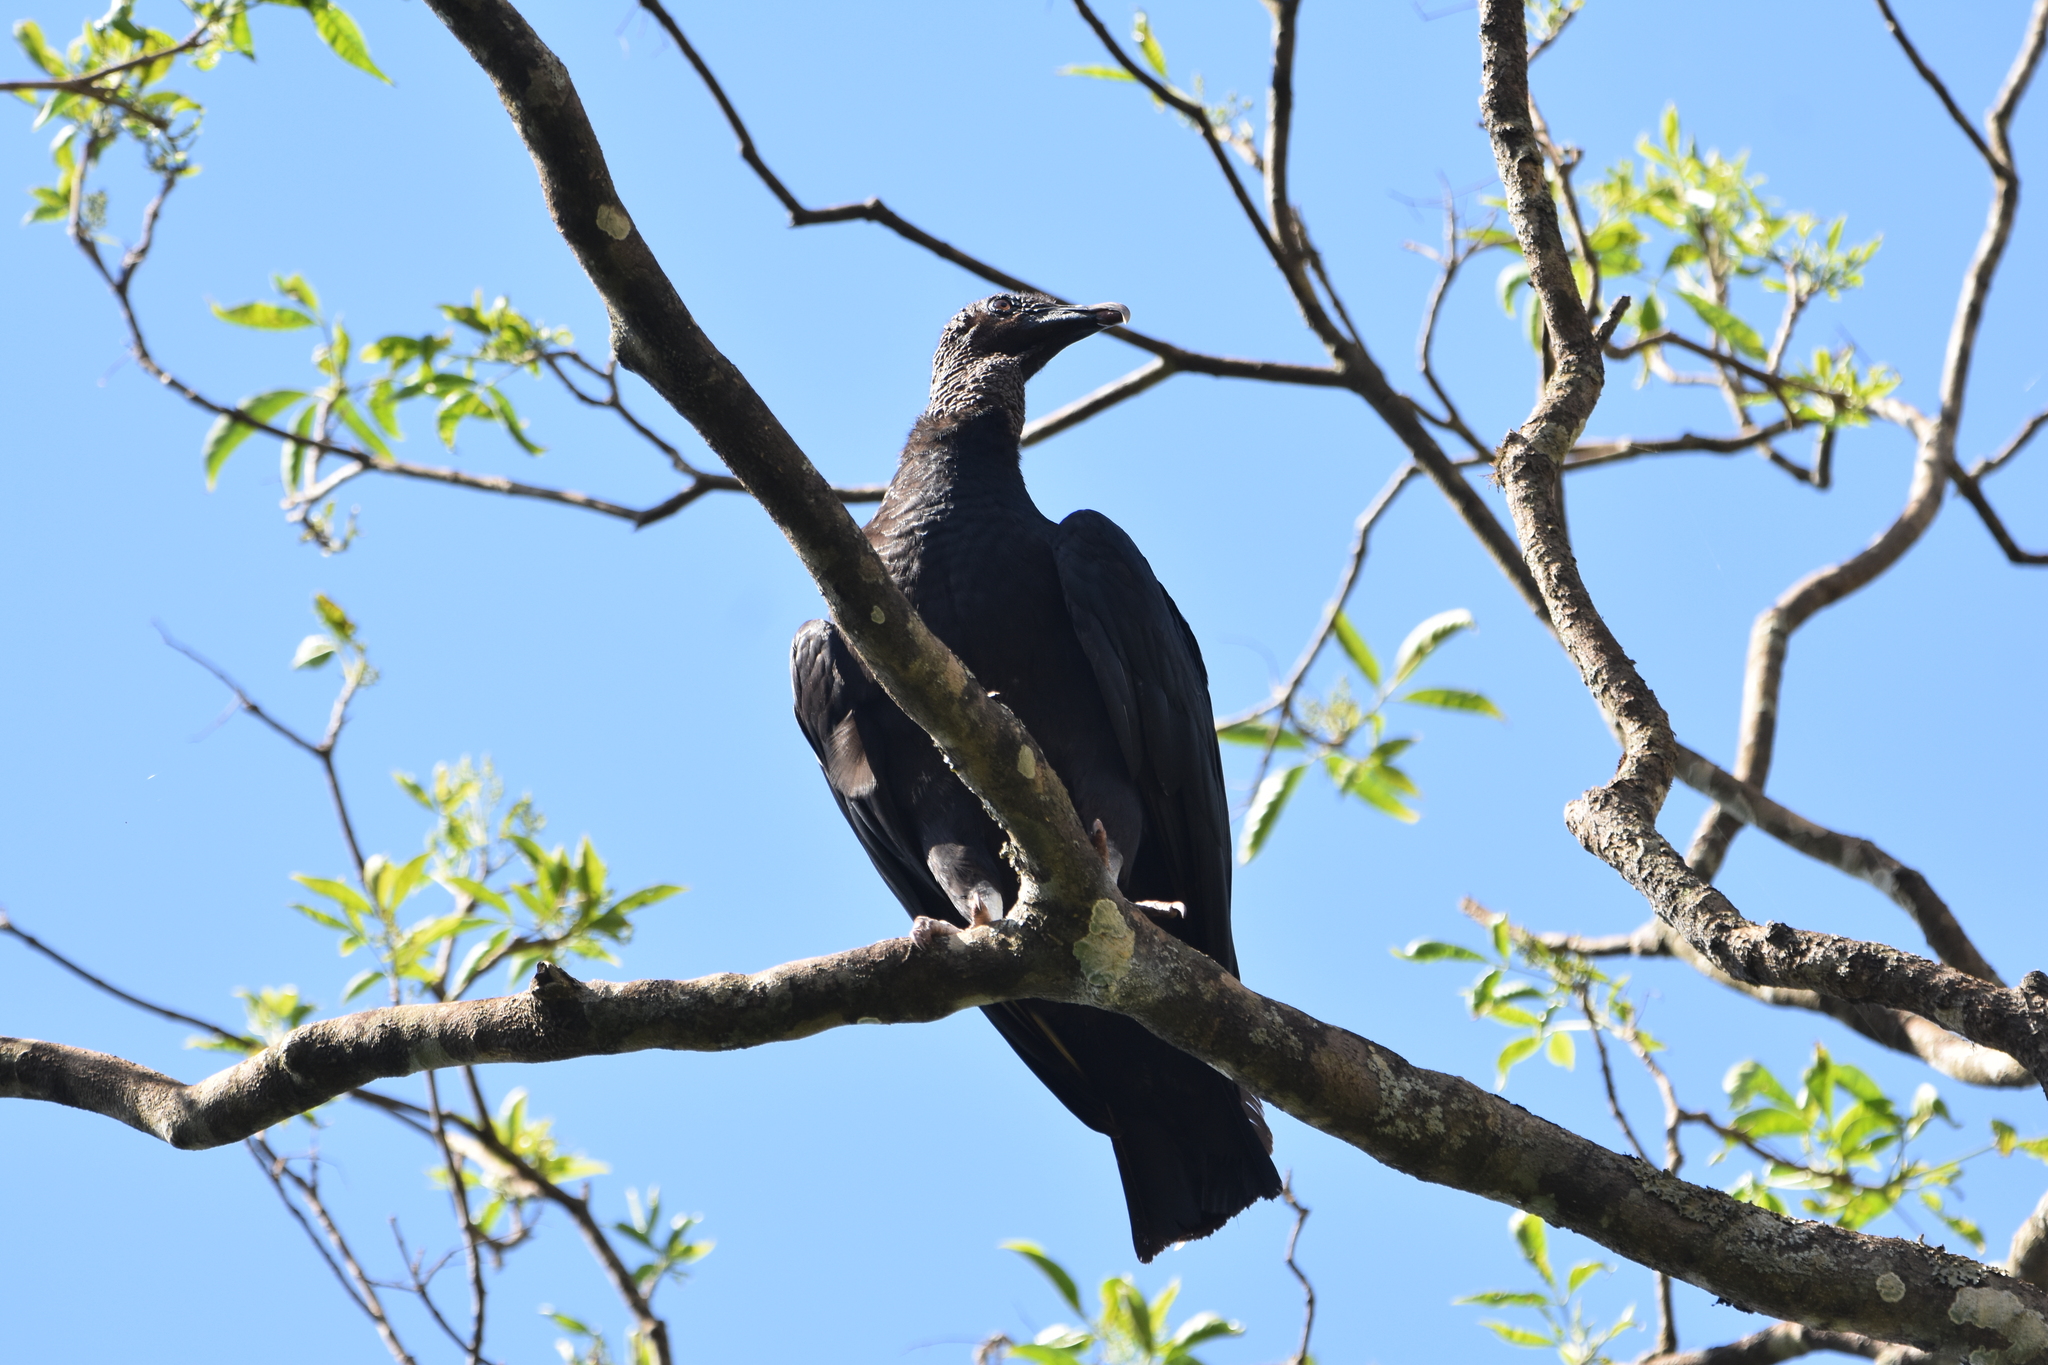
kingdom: Animalia
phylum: Chordata
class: Aves
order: Accipitriformes
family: Cathartidae
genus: Coragyps
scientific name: Coragyps atratus
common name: Black vulture
